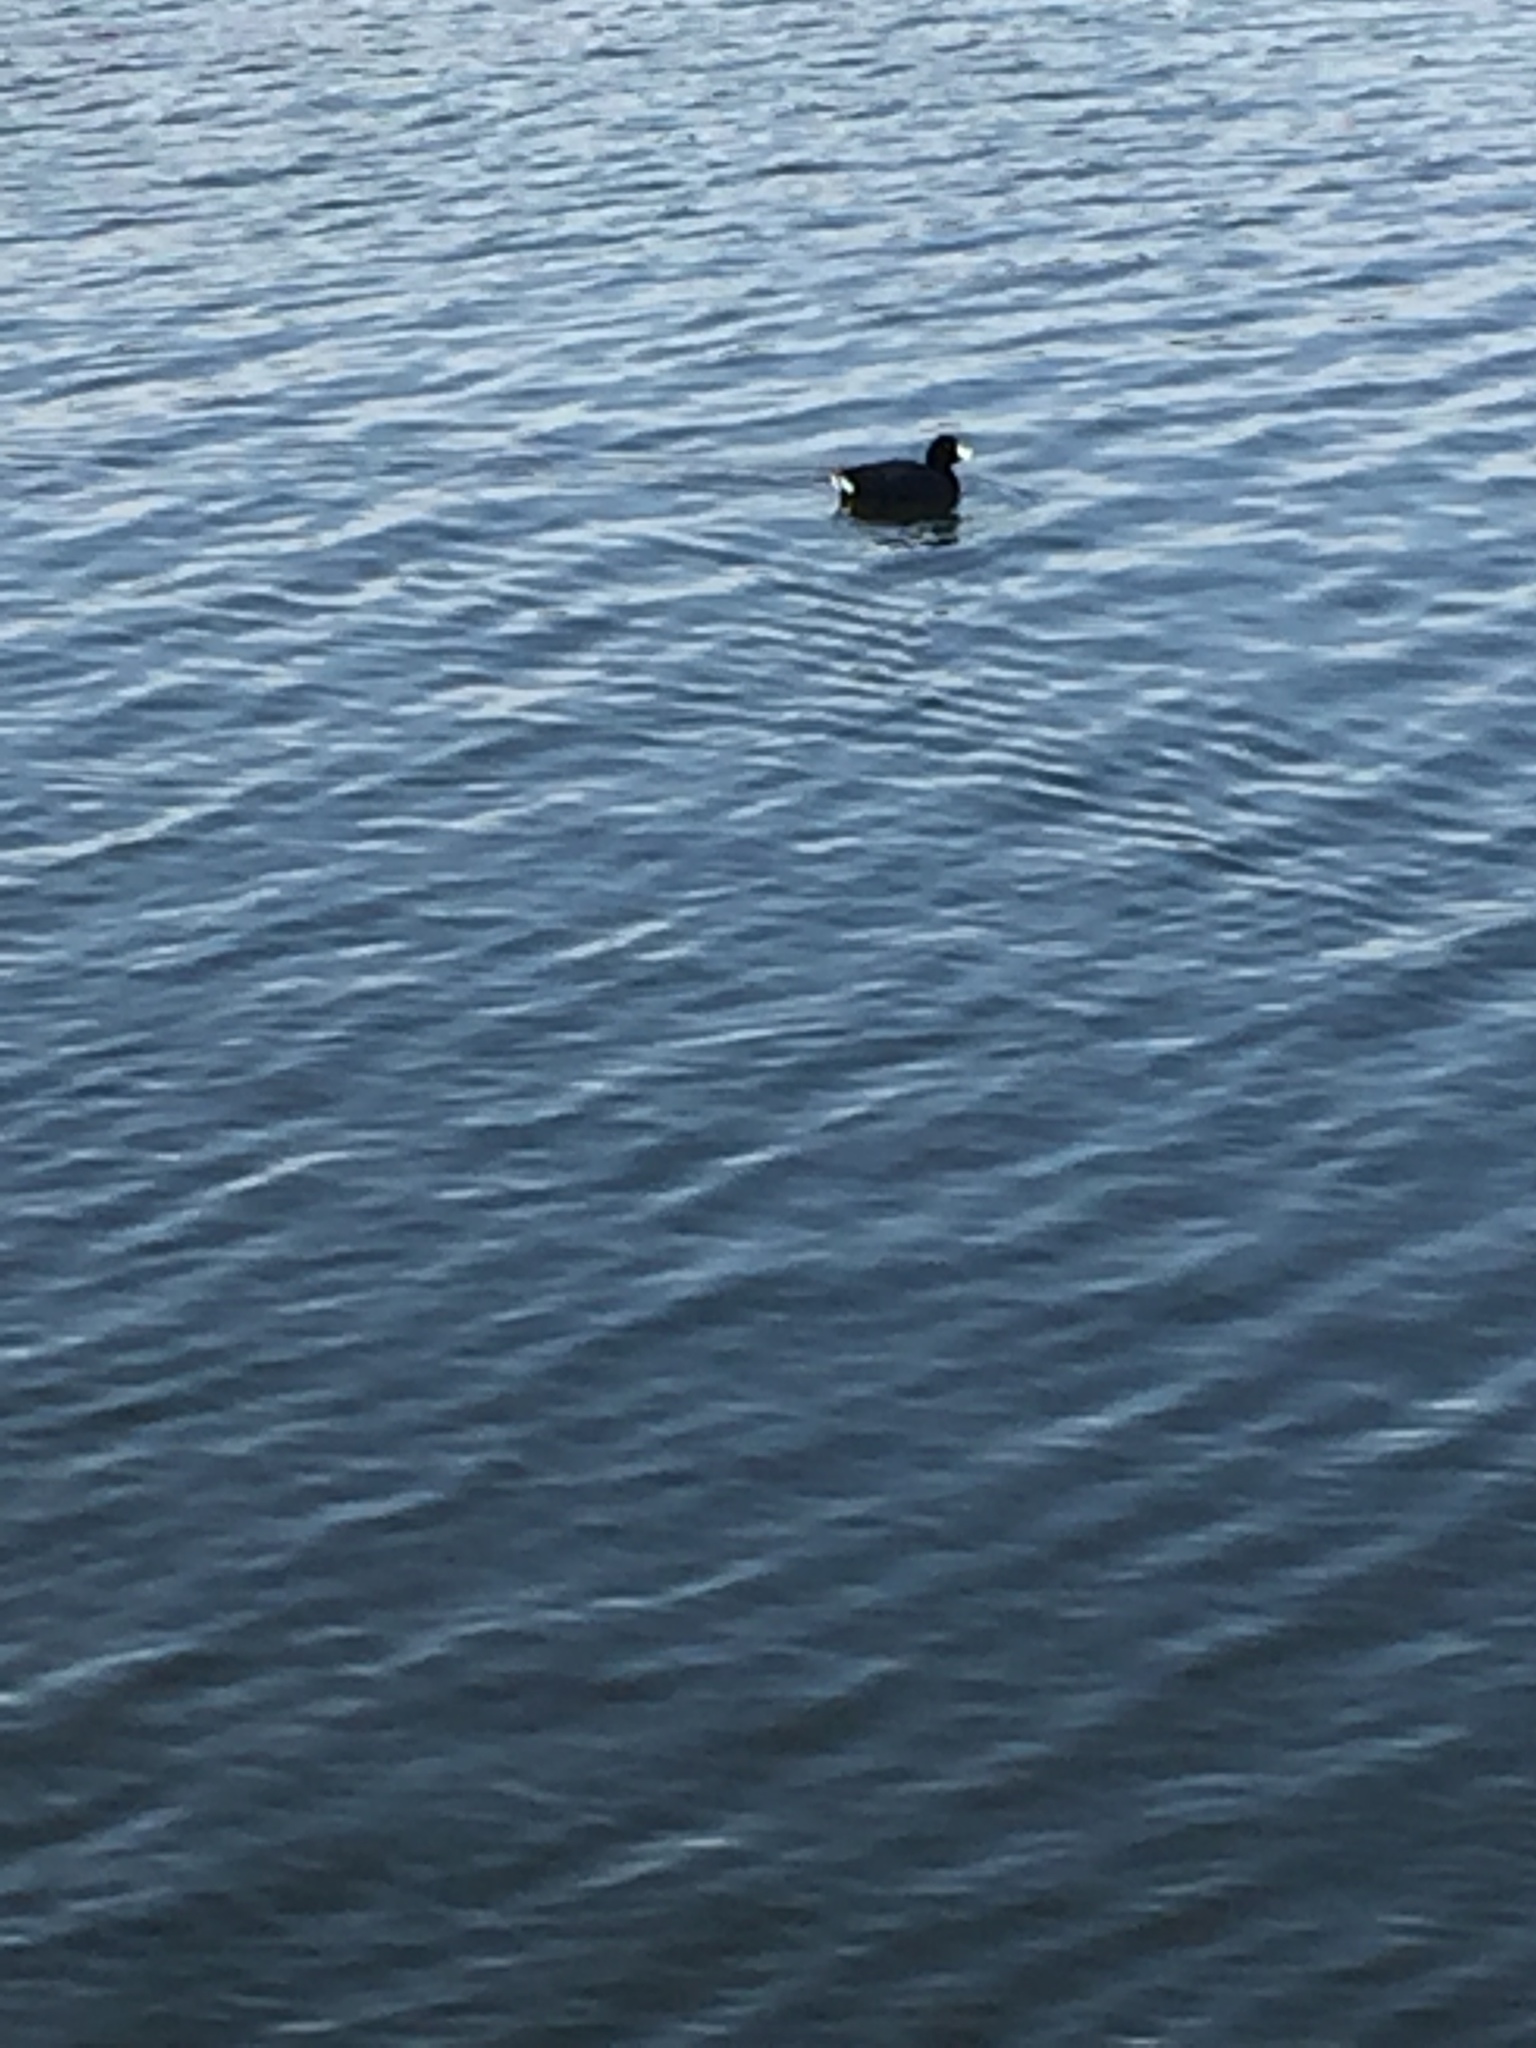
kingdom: Animalia
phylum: Chordata
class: Aves
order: Gruiformes
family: Rallidae
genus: Fulica
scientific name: Fulica americana
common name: American coot
